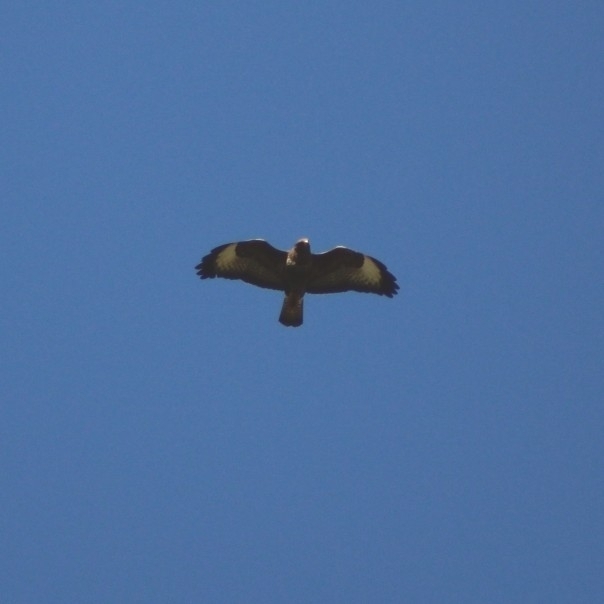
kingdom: Animalia
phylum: Chordata
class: Aves
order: Accipitriformes
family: Accipitridae
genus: Buteo
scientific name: Buteo buteo
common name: Common buzzard
